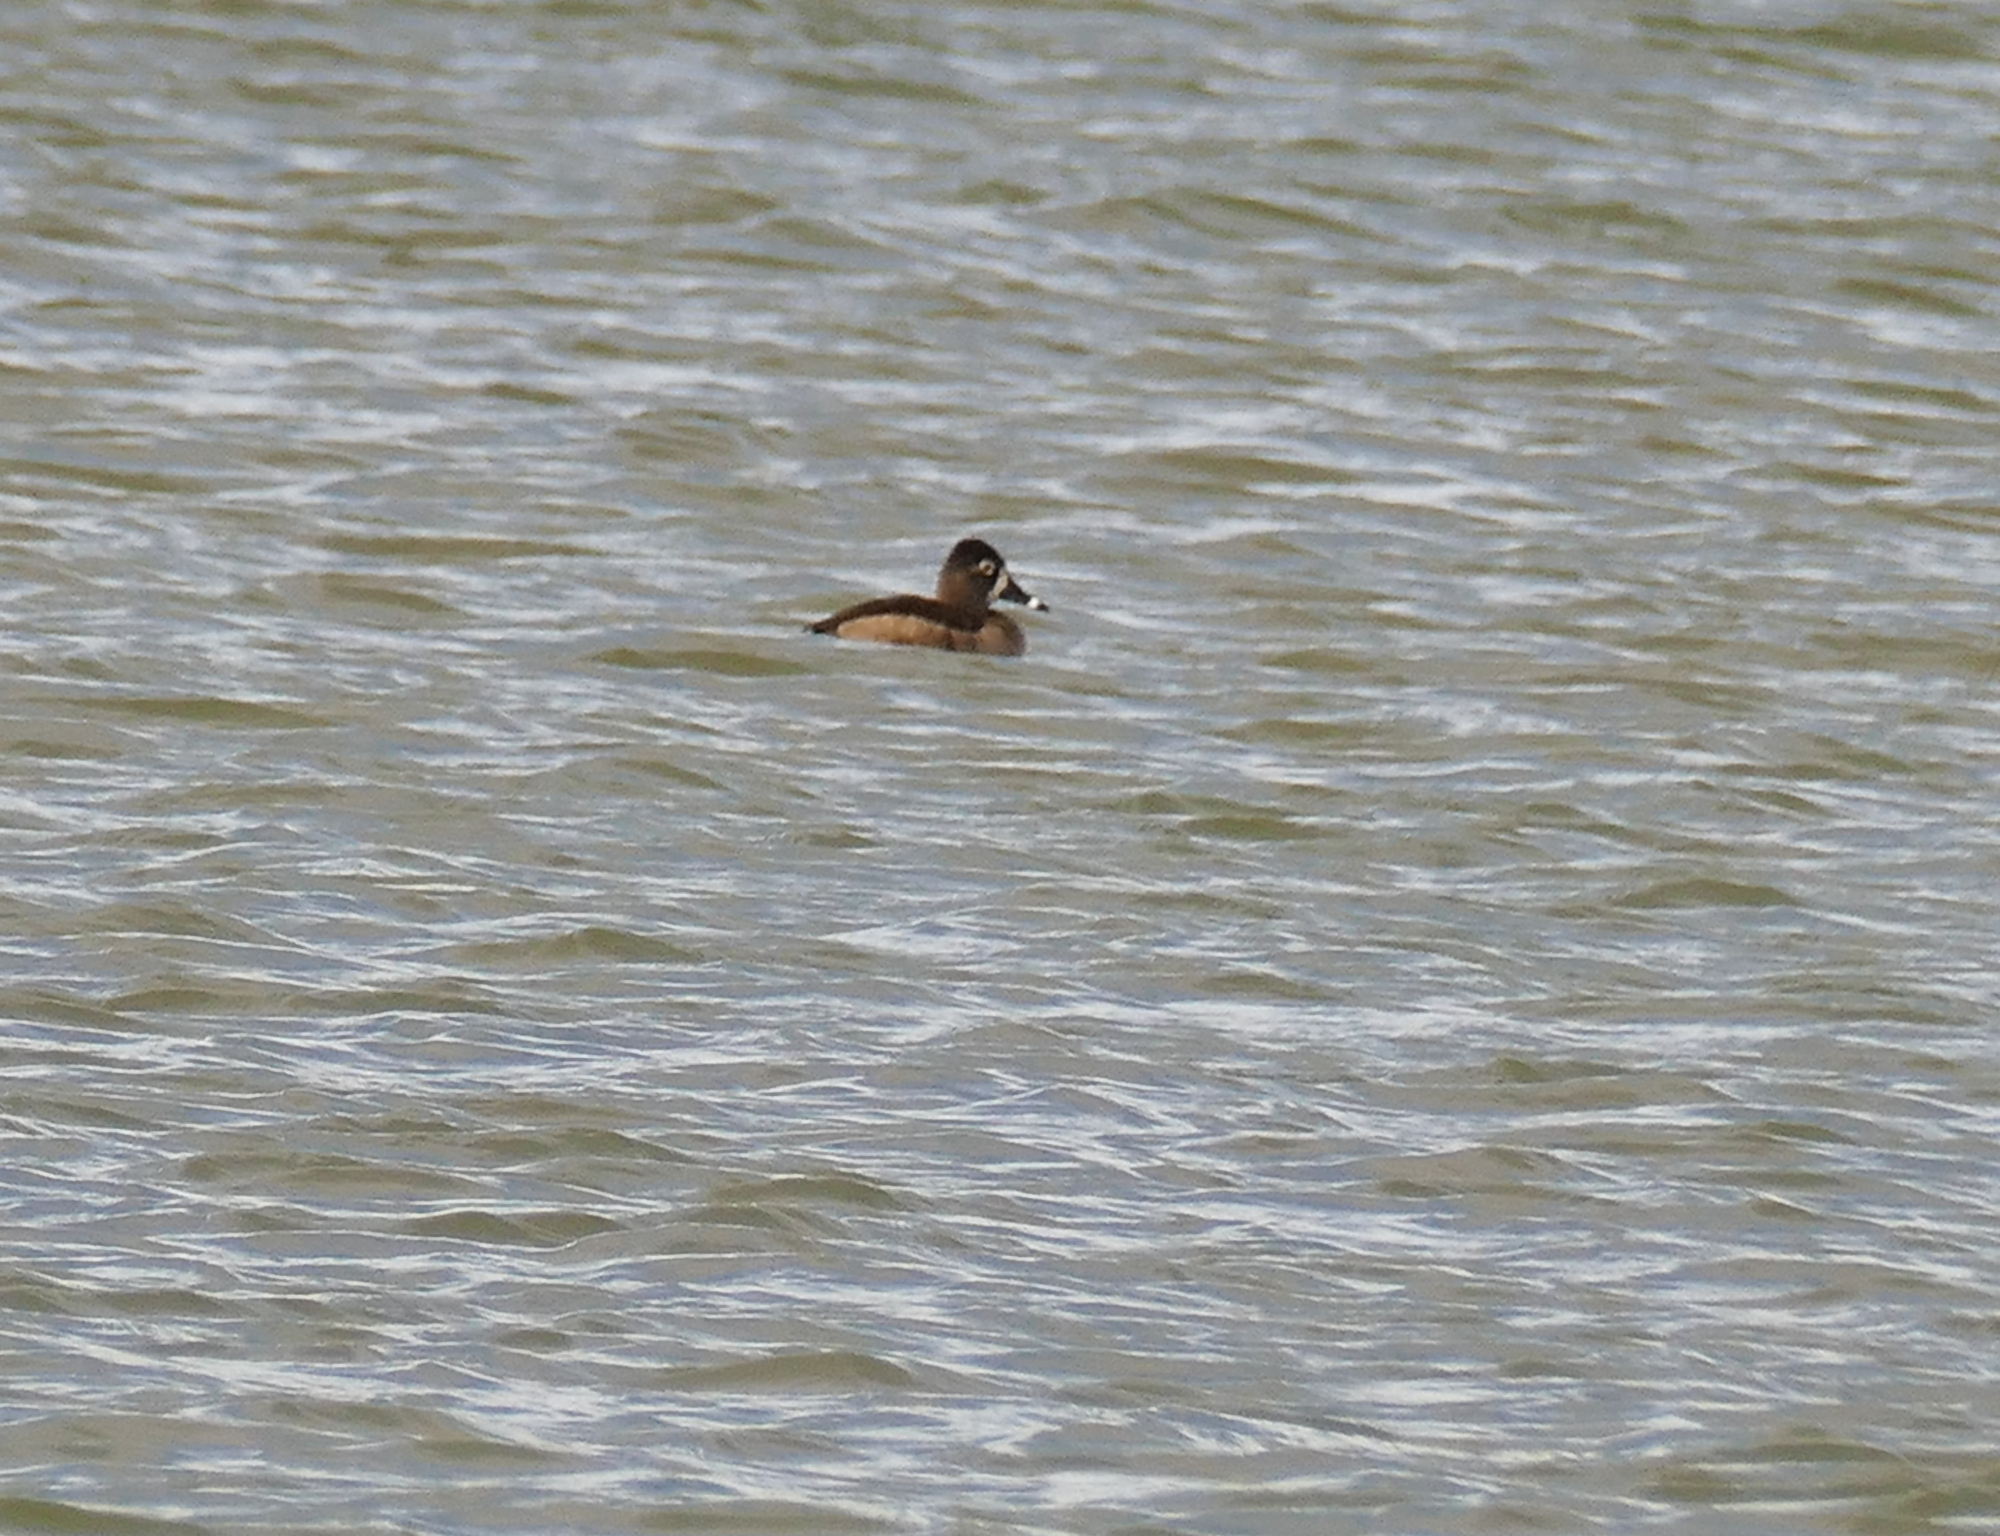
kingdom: Animalia
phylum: Chordata
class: Aves
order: Anseriformes
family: Anatidae
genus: Aythya
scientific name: Aythya collaris
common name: Ring-necked duck
